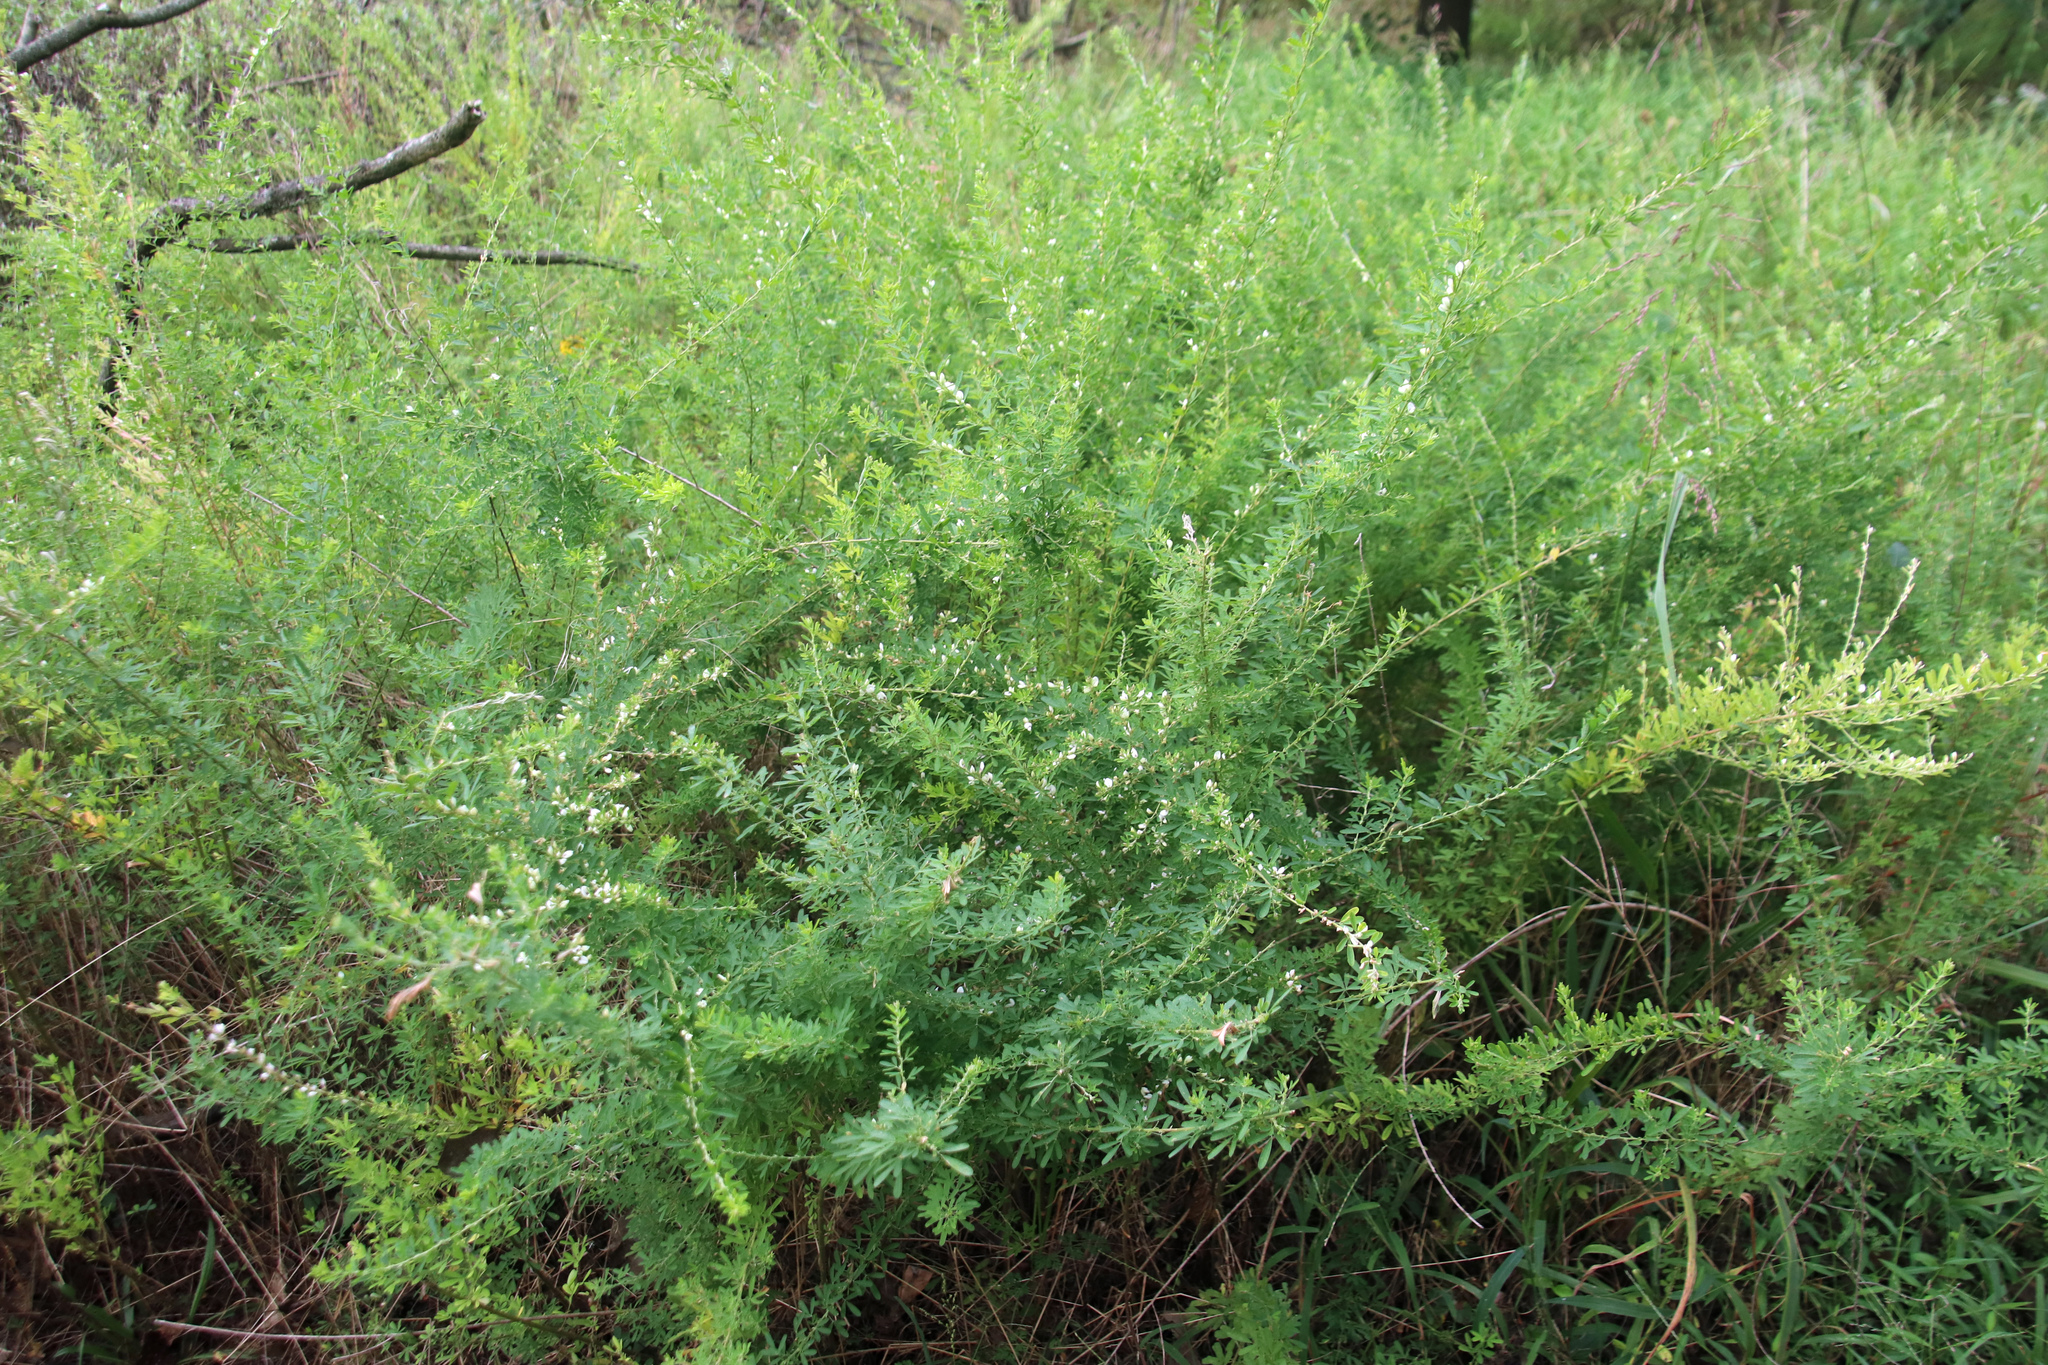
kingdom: Plantae
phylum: Tracheophyta
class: Magnoliopsida
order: Fabales
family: Fabaceae
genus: Lespedeza
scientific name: Lespedeza cuneata
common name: Chinese bush-clover
